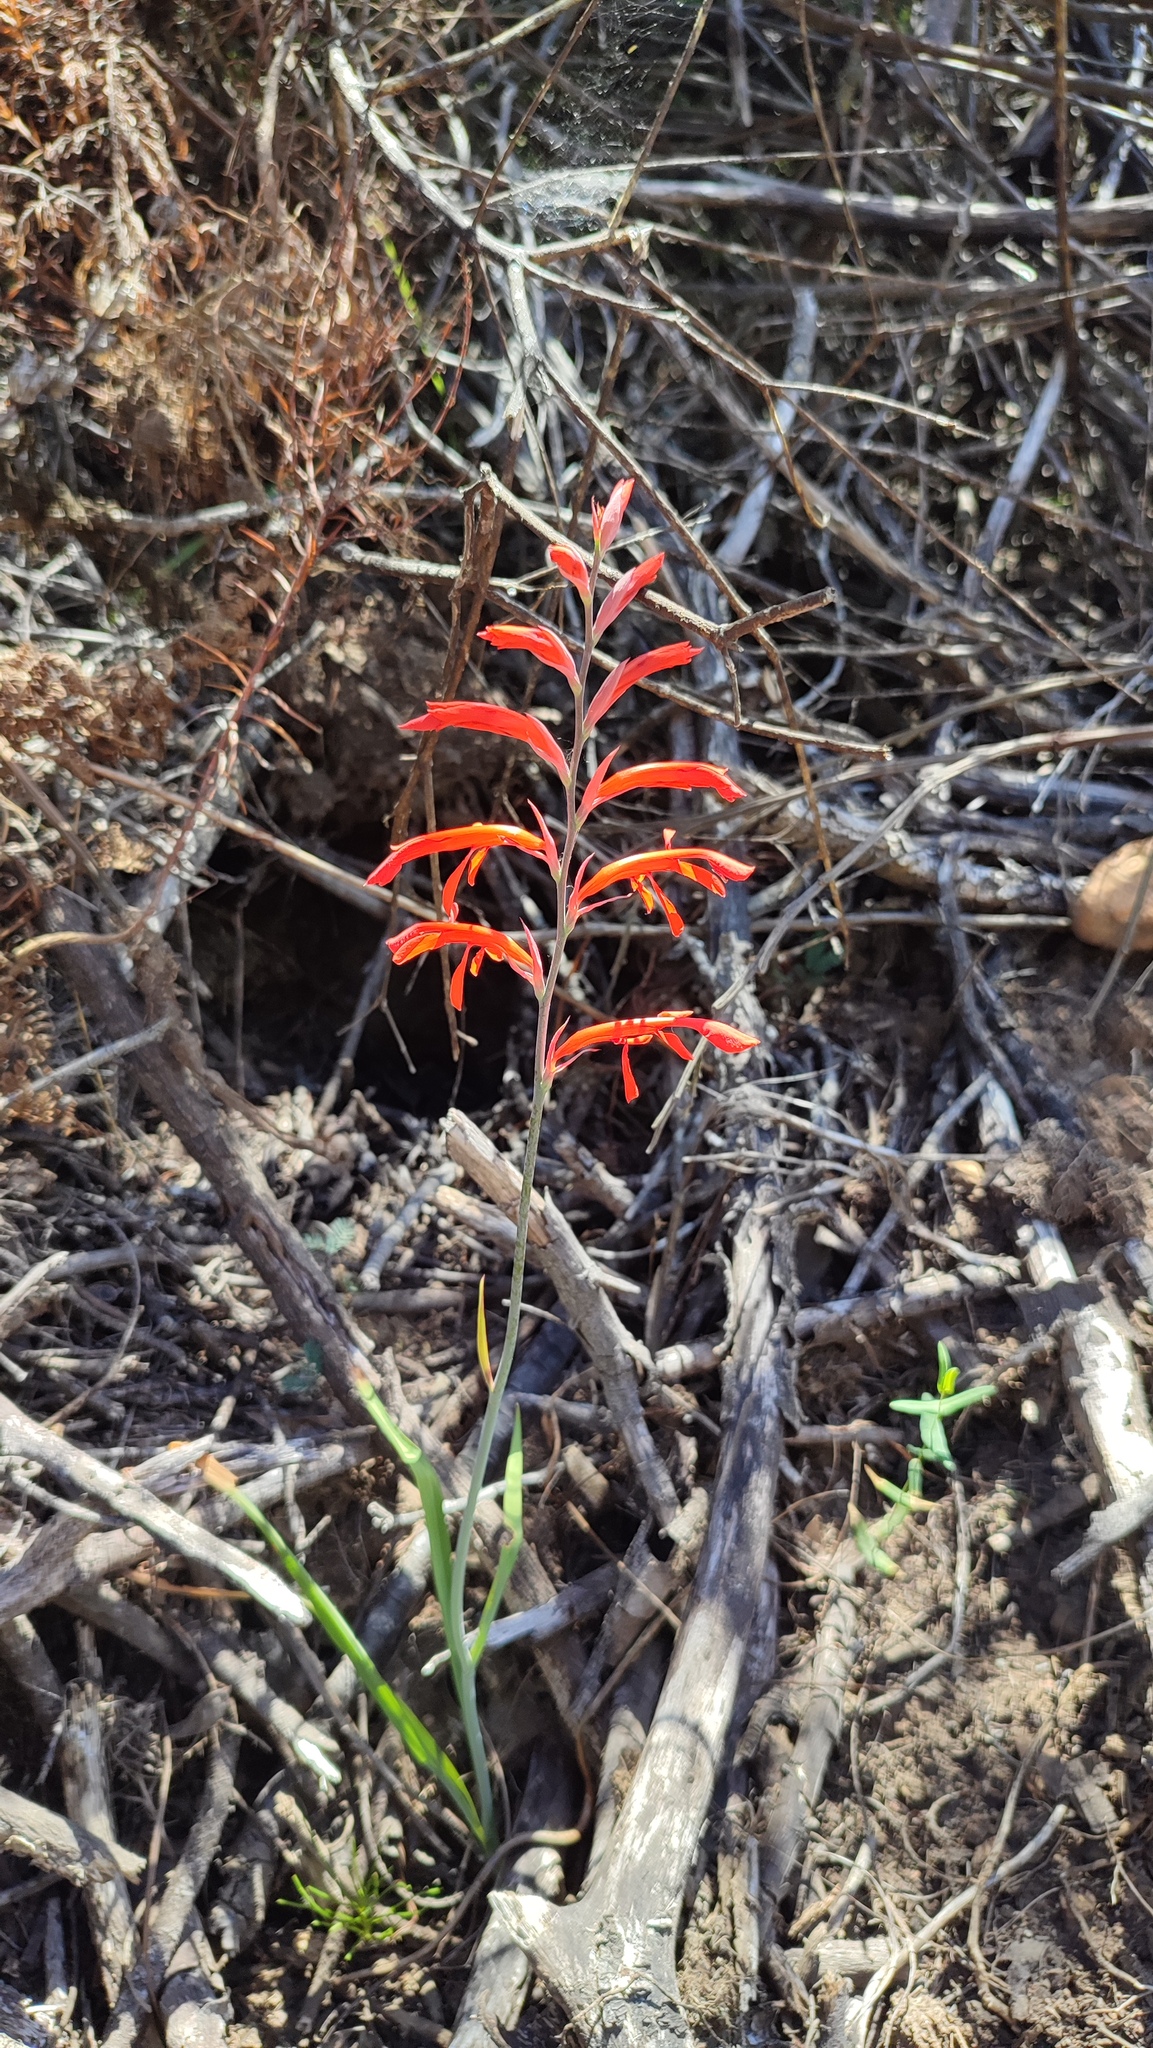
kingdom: Plantae
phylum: Tracheophyta
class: Liliopsida
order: Asparagales
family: Iridaceae
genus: Tritoniopsis
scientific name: Tritoniopsis caffra
